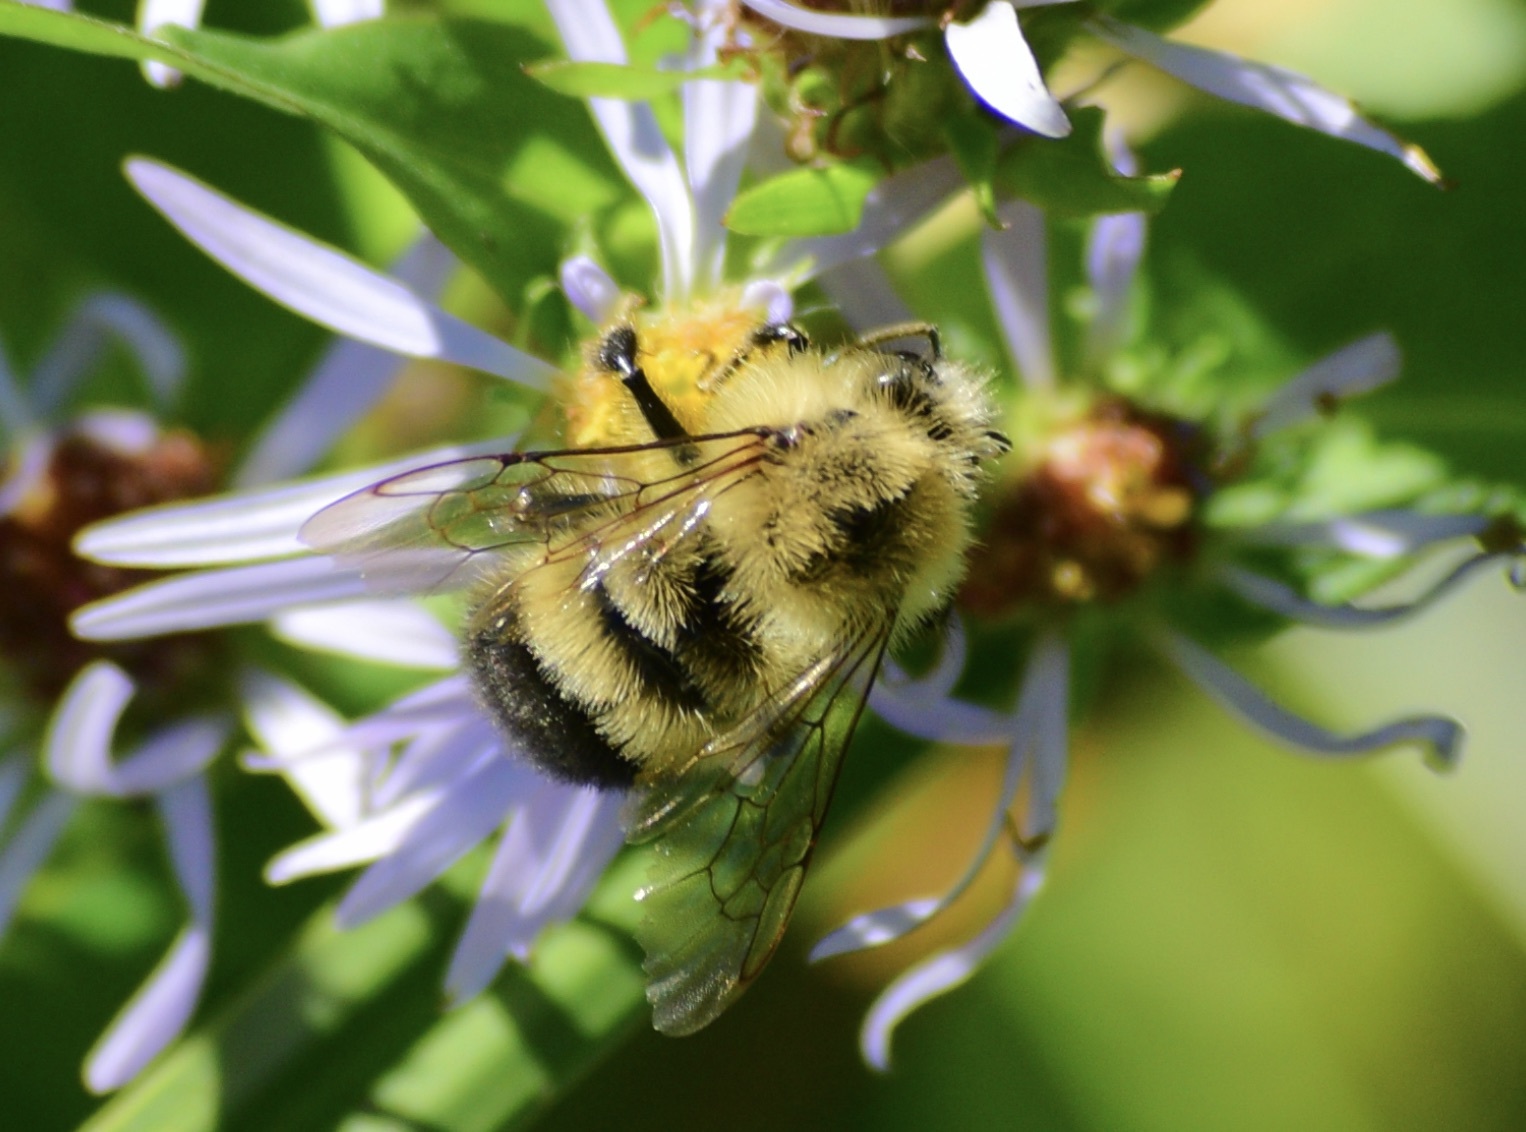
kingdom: Animalia
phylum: Arthropoda
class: Insecta
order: Hymenoptera
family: Apidae
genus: Pyrobombus
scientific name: Pyrobombus
